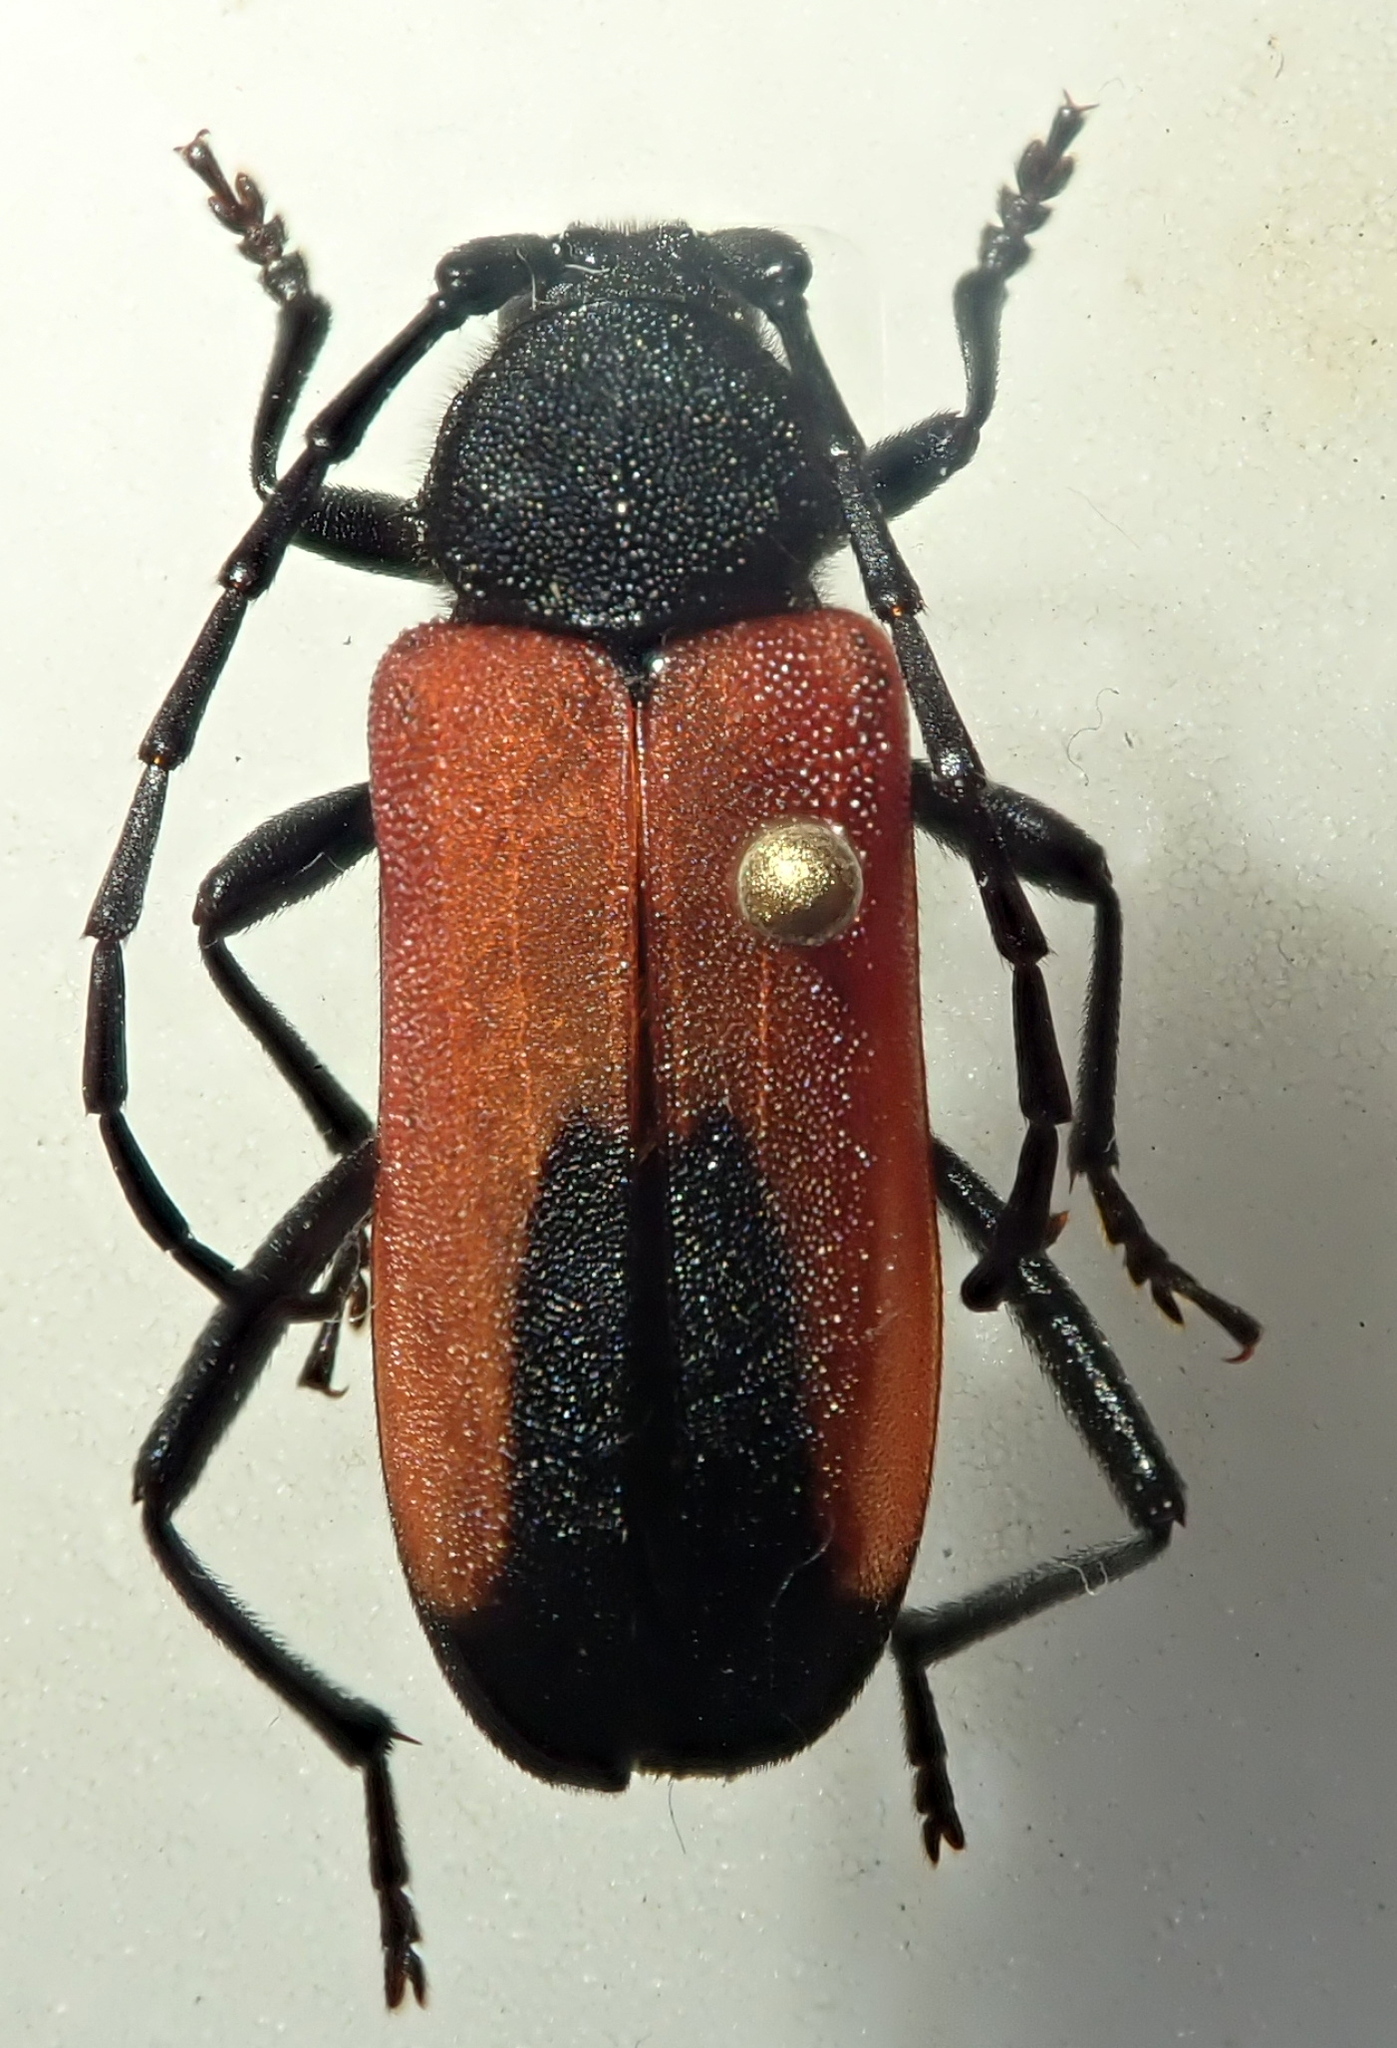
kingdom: Animalia
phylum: Arthropoda
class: Insecta
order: Coleoptera
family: Cerambycidae
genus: Purpuricenus
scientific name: Purpuricenus budensis
